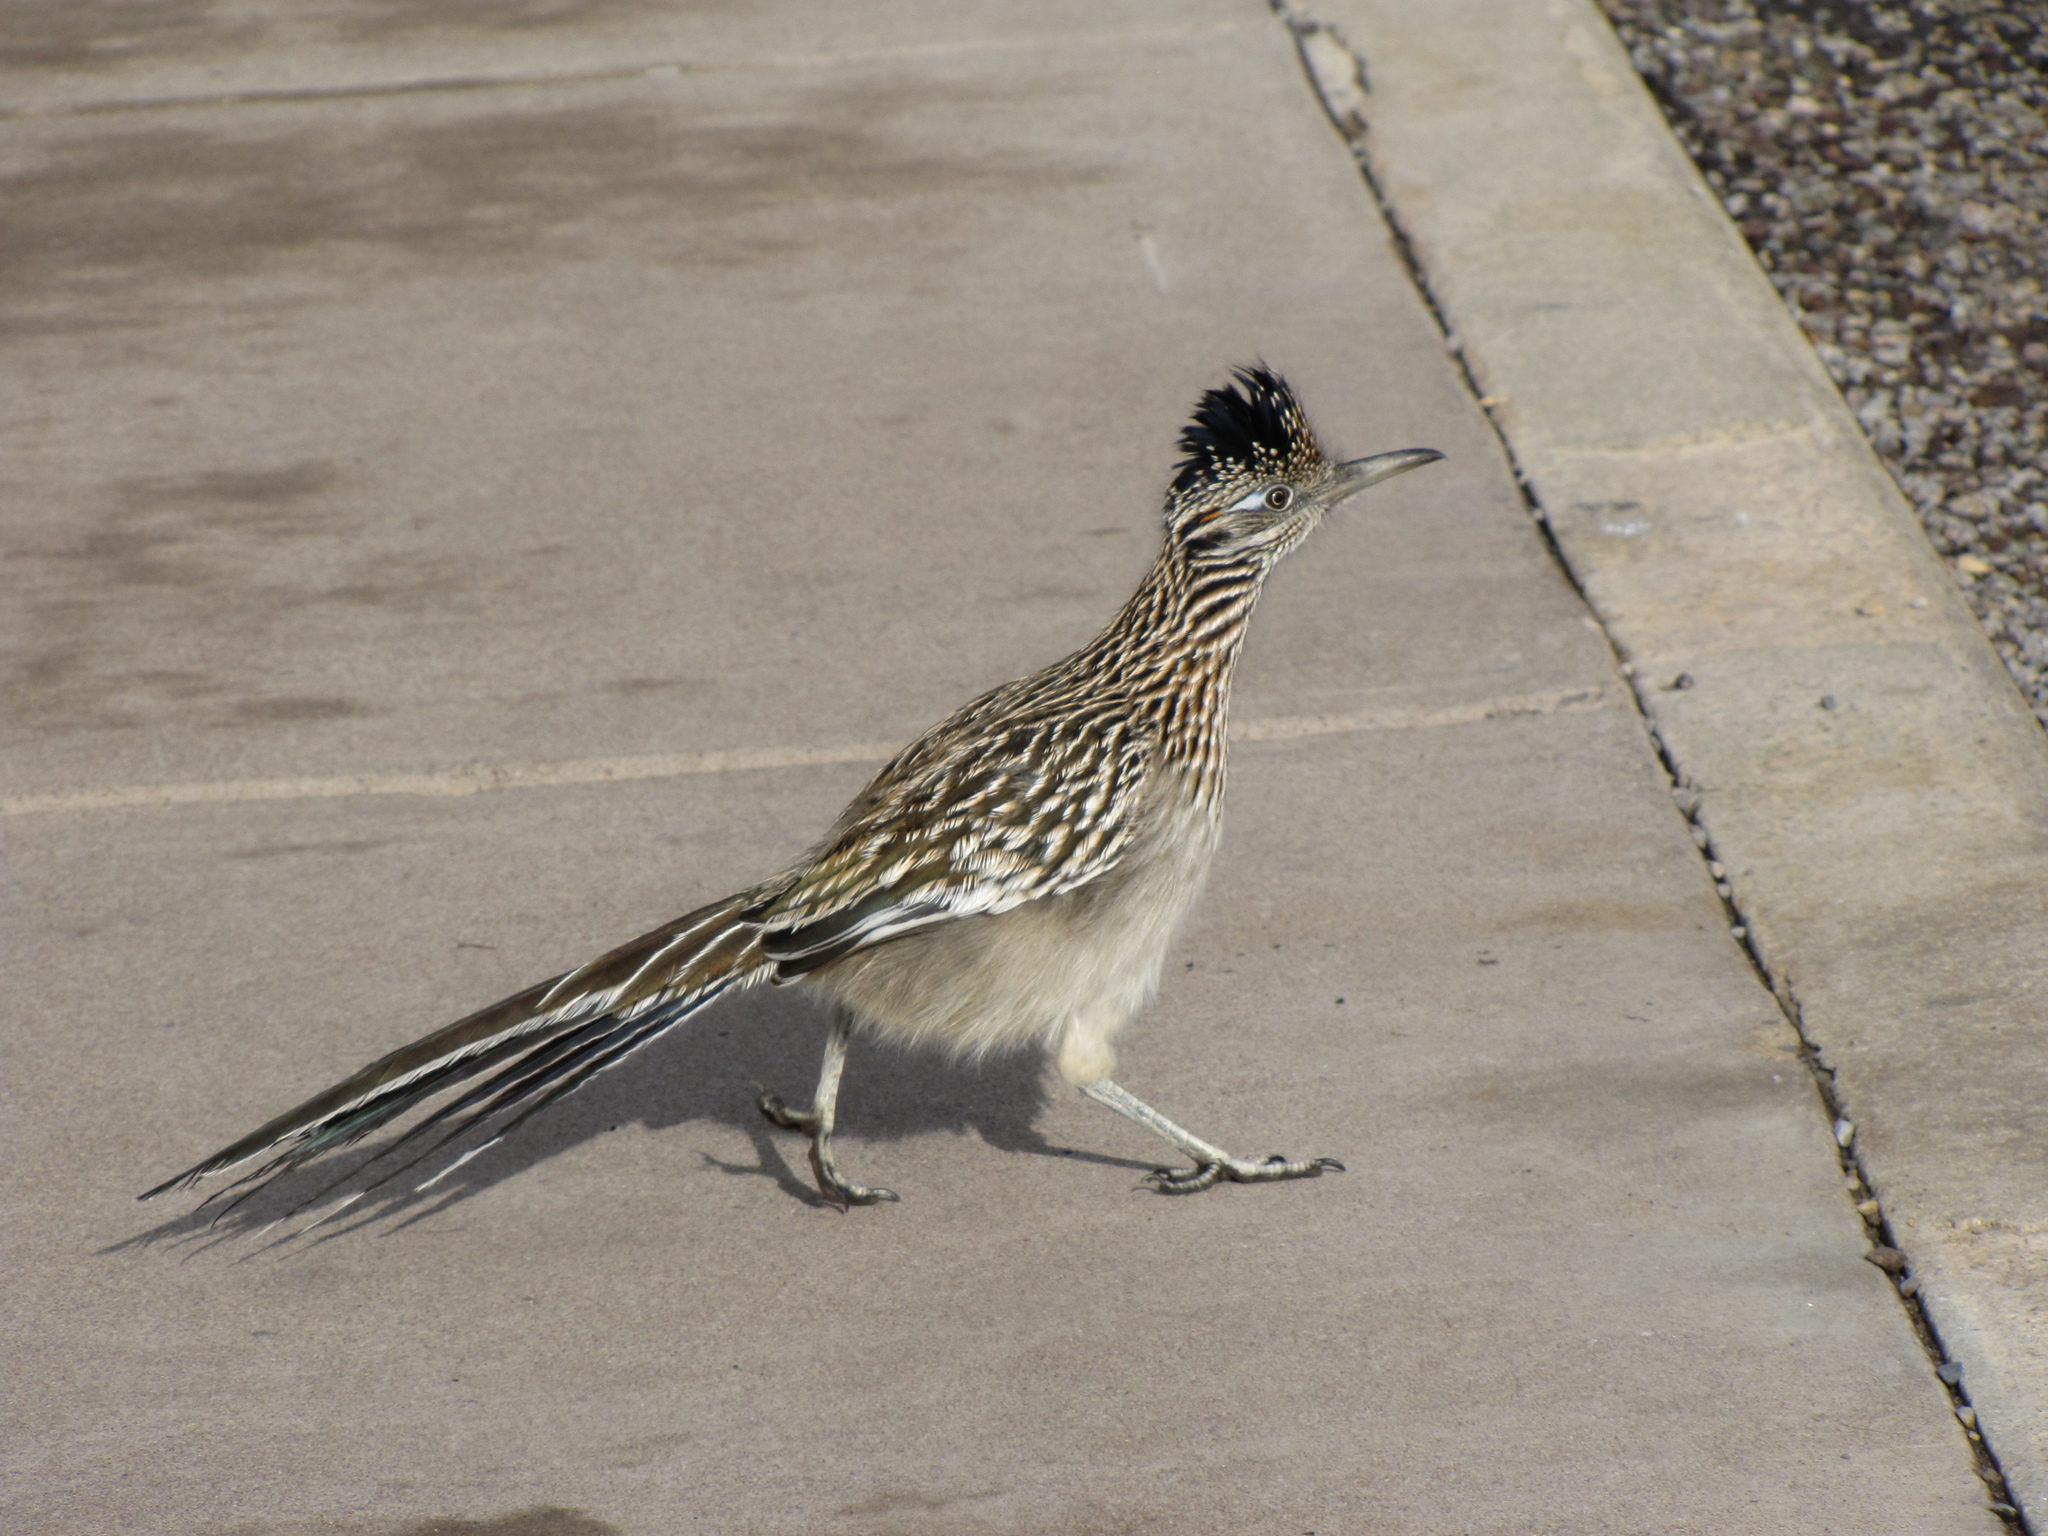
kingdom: Animalia
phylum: Chordata
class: Aves
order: Cuculiformes
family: Cuculidae
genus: Geococcyx
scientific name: Geococcyx californianus
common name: Greater roadrunner
